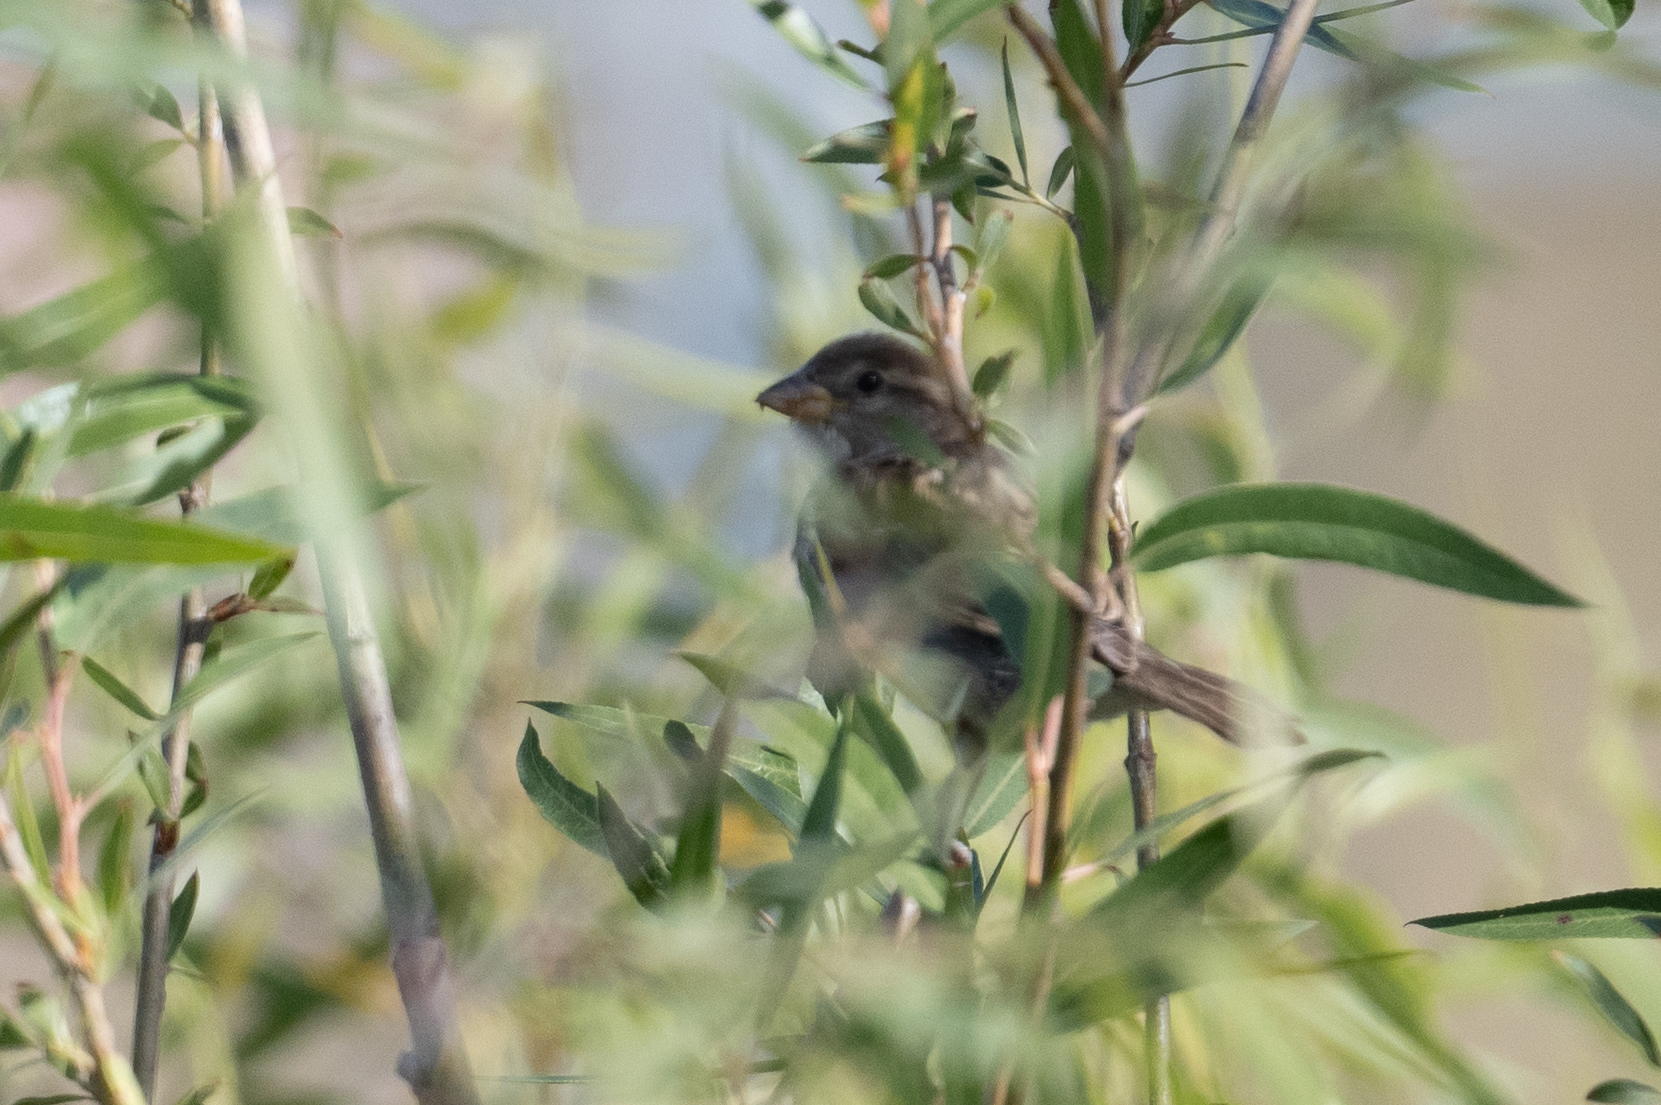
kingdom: Animalia
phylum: Chordata
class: Aves
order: Passeriformes
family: Passeridae
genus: Passer
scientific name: Passer domesticus
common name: House sparrow
